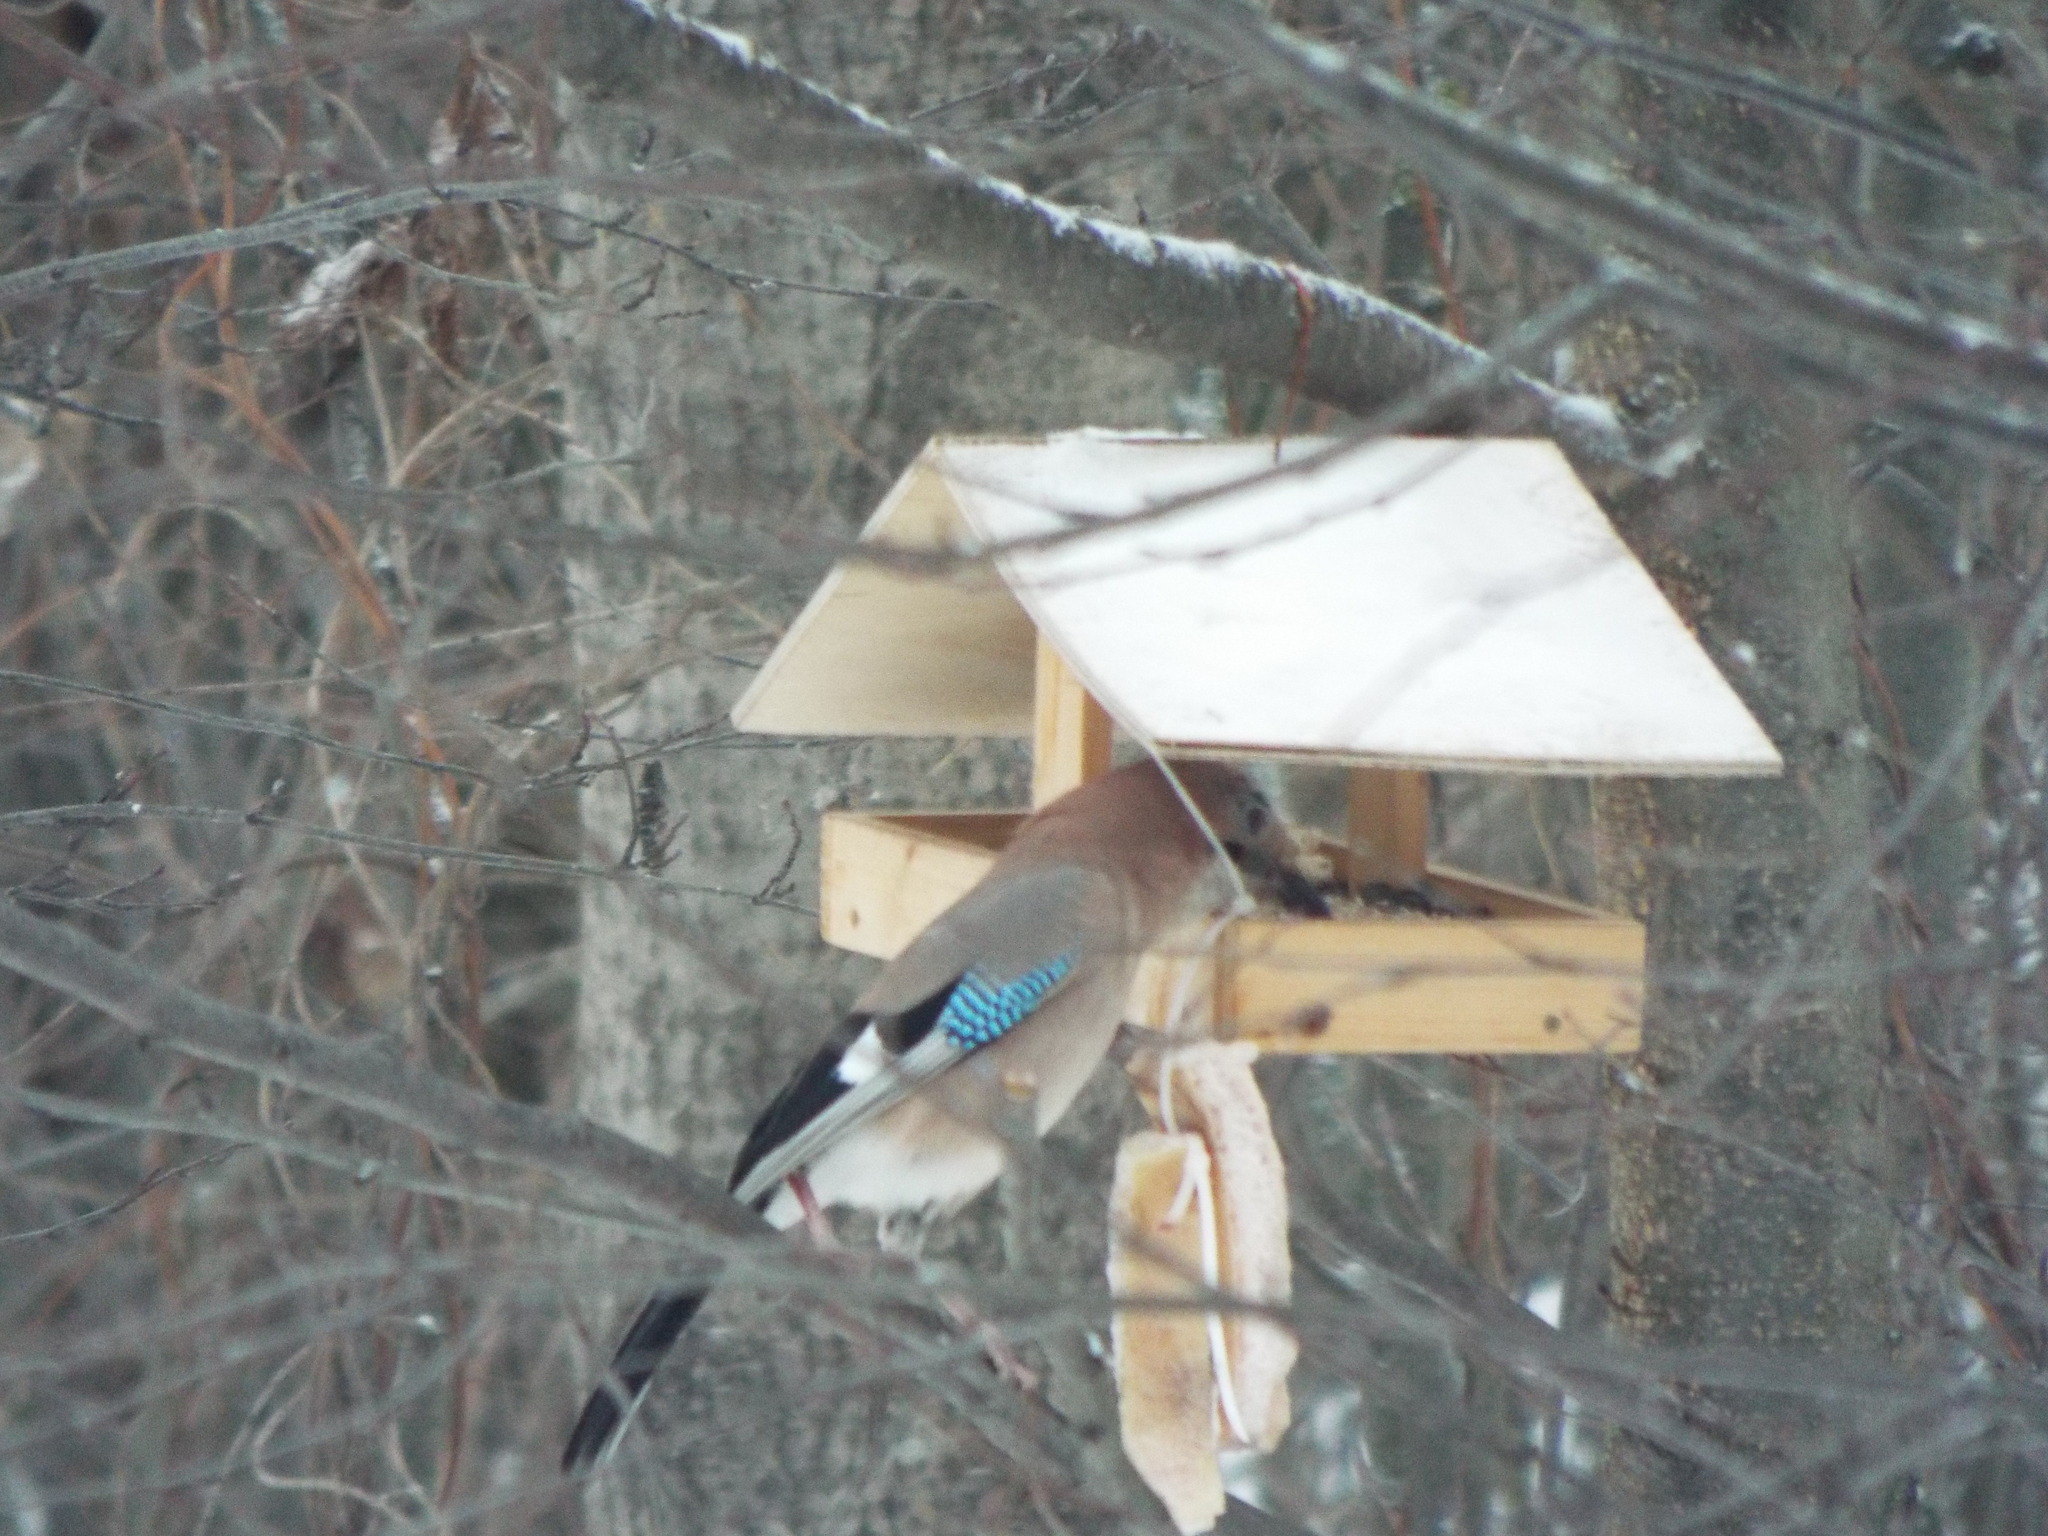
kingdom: Animalia
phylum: Chordata
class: Aves
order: Passeriformes
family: Corvidae
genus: Garrulus
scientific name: Garrulus glandarius
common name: Eurasian jay
